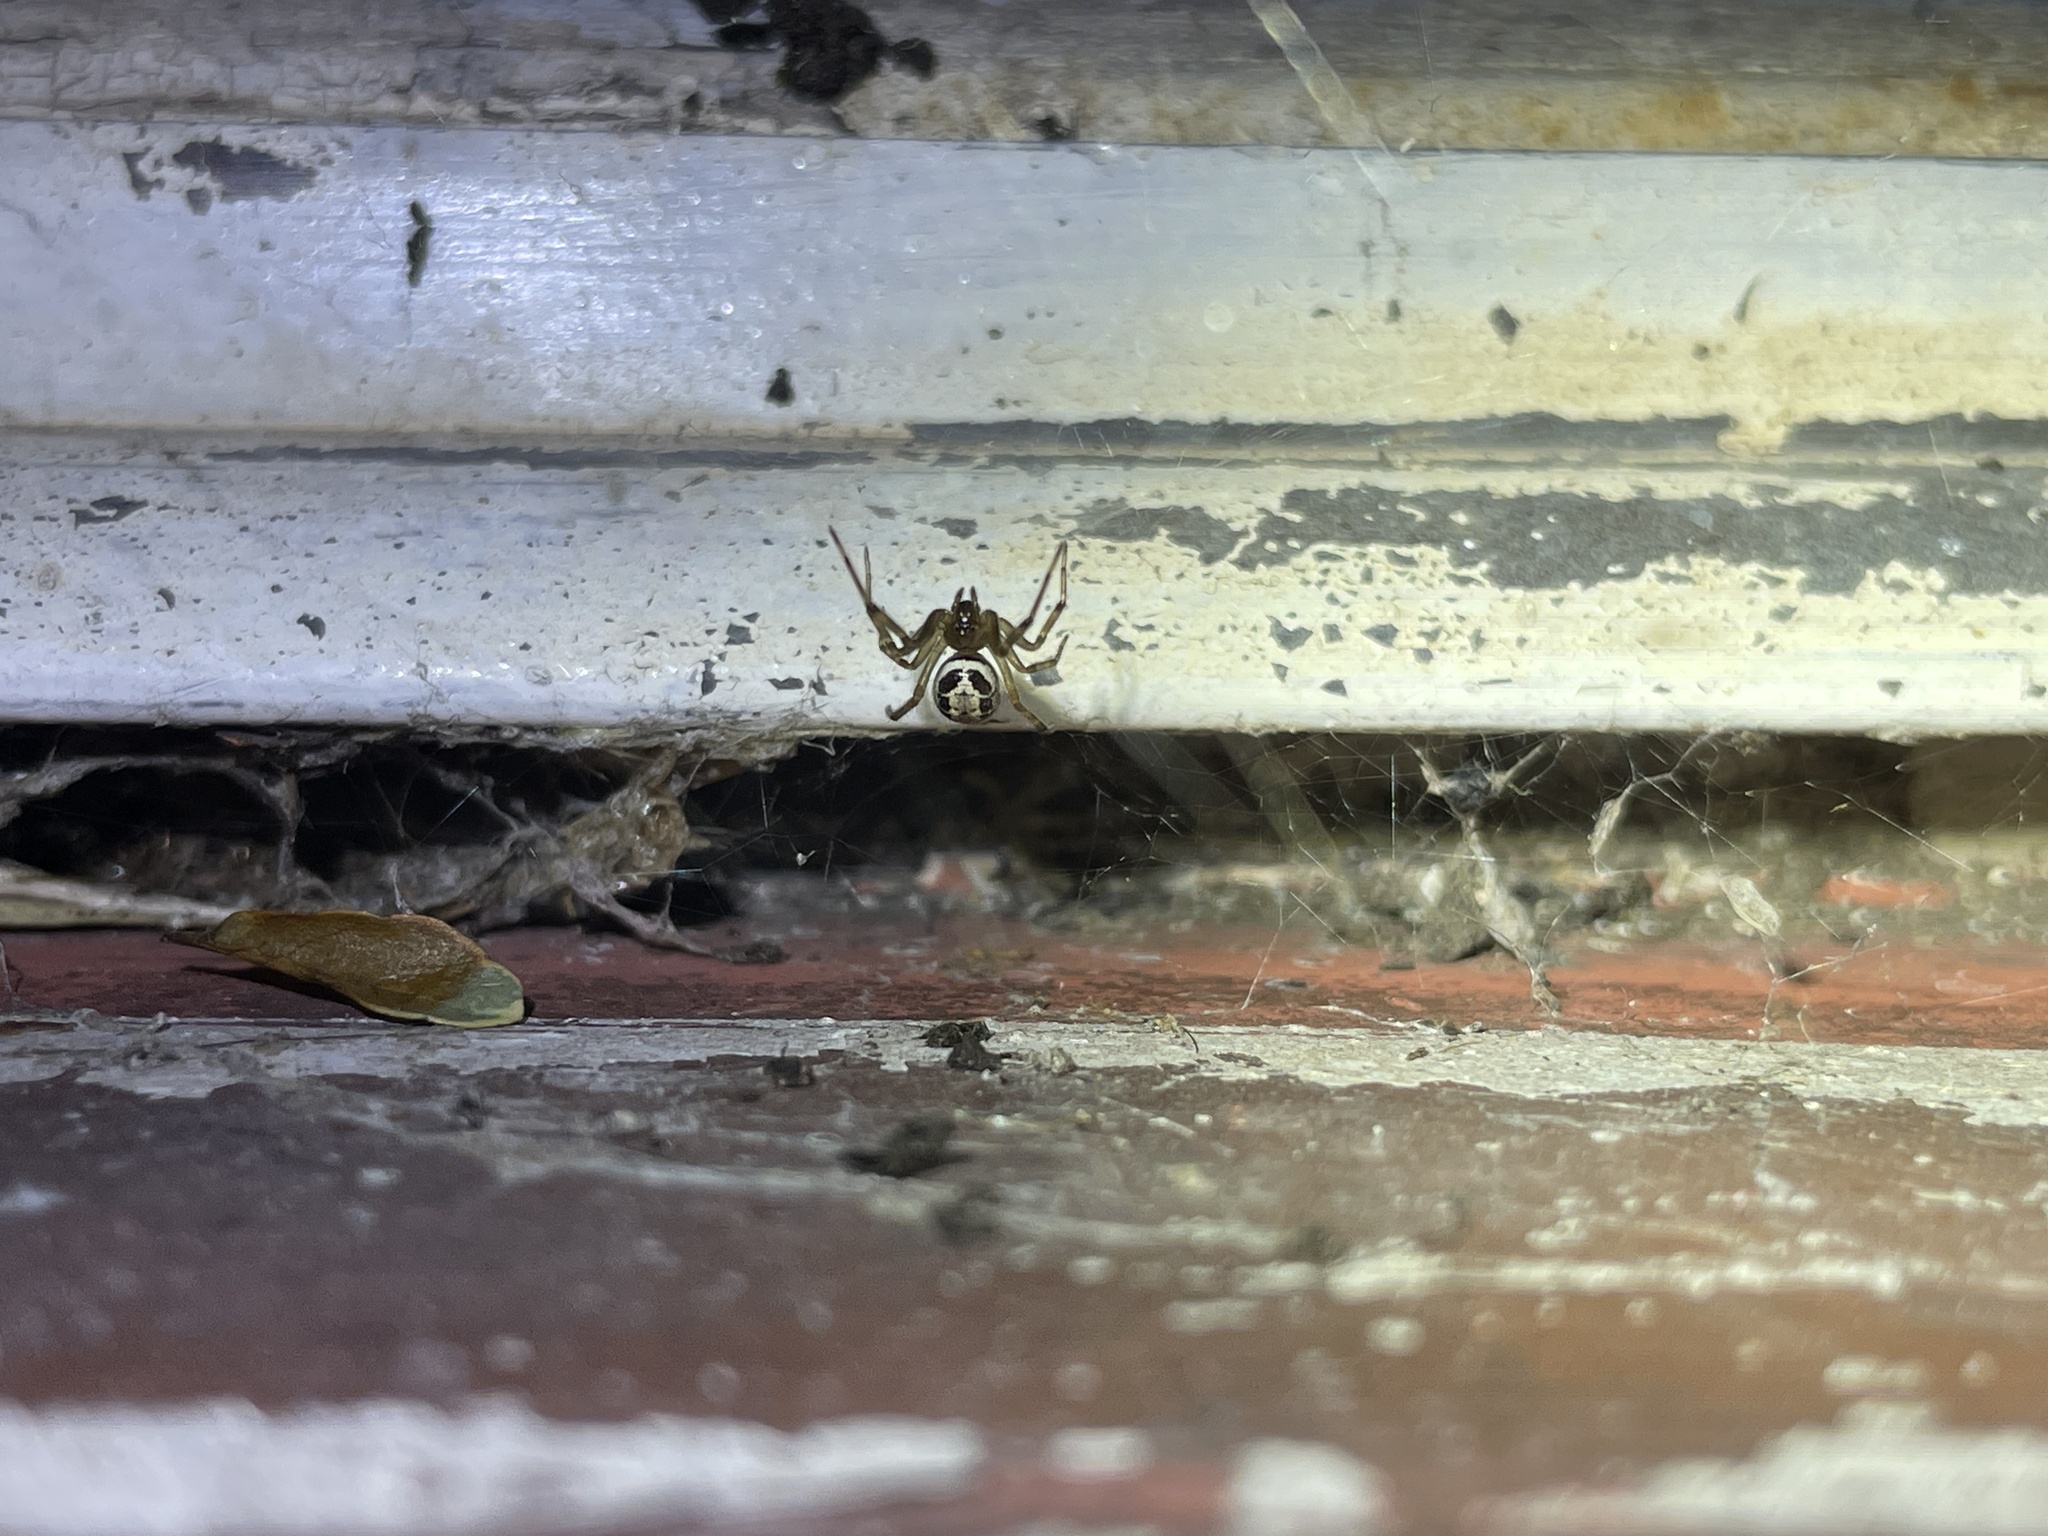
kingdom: Animalia
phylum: Arthropoda
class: Arachnida
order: Araneae
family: Theridiidae
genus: Steatoda
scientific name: Steatoda nobilis
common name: Cobweb weaver
